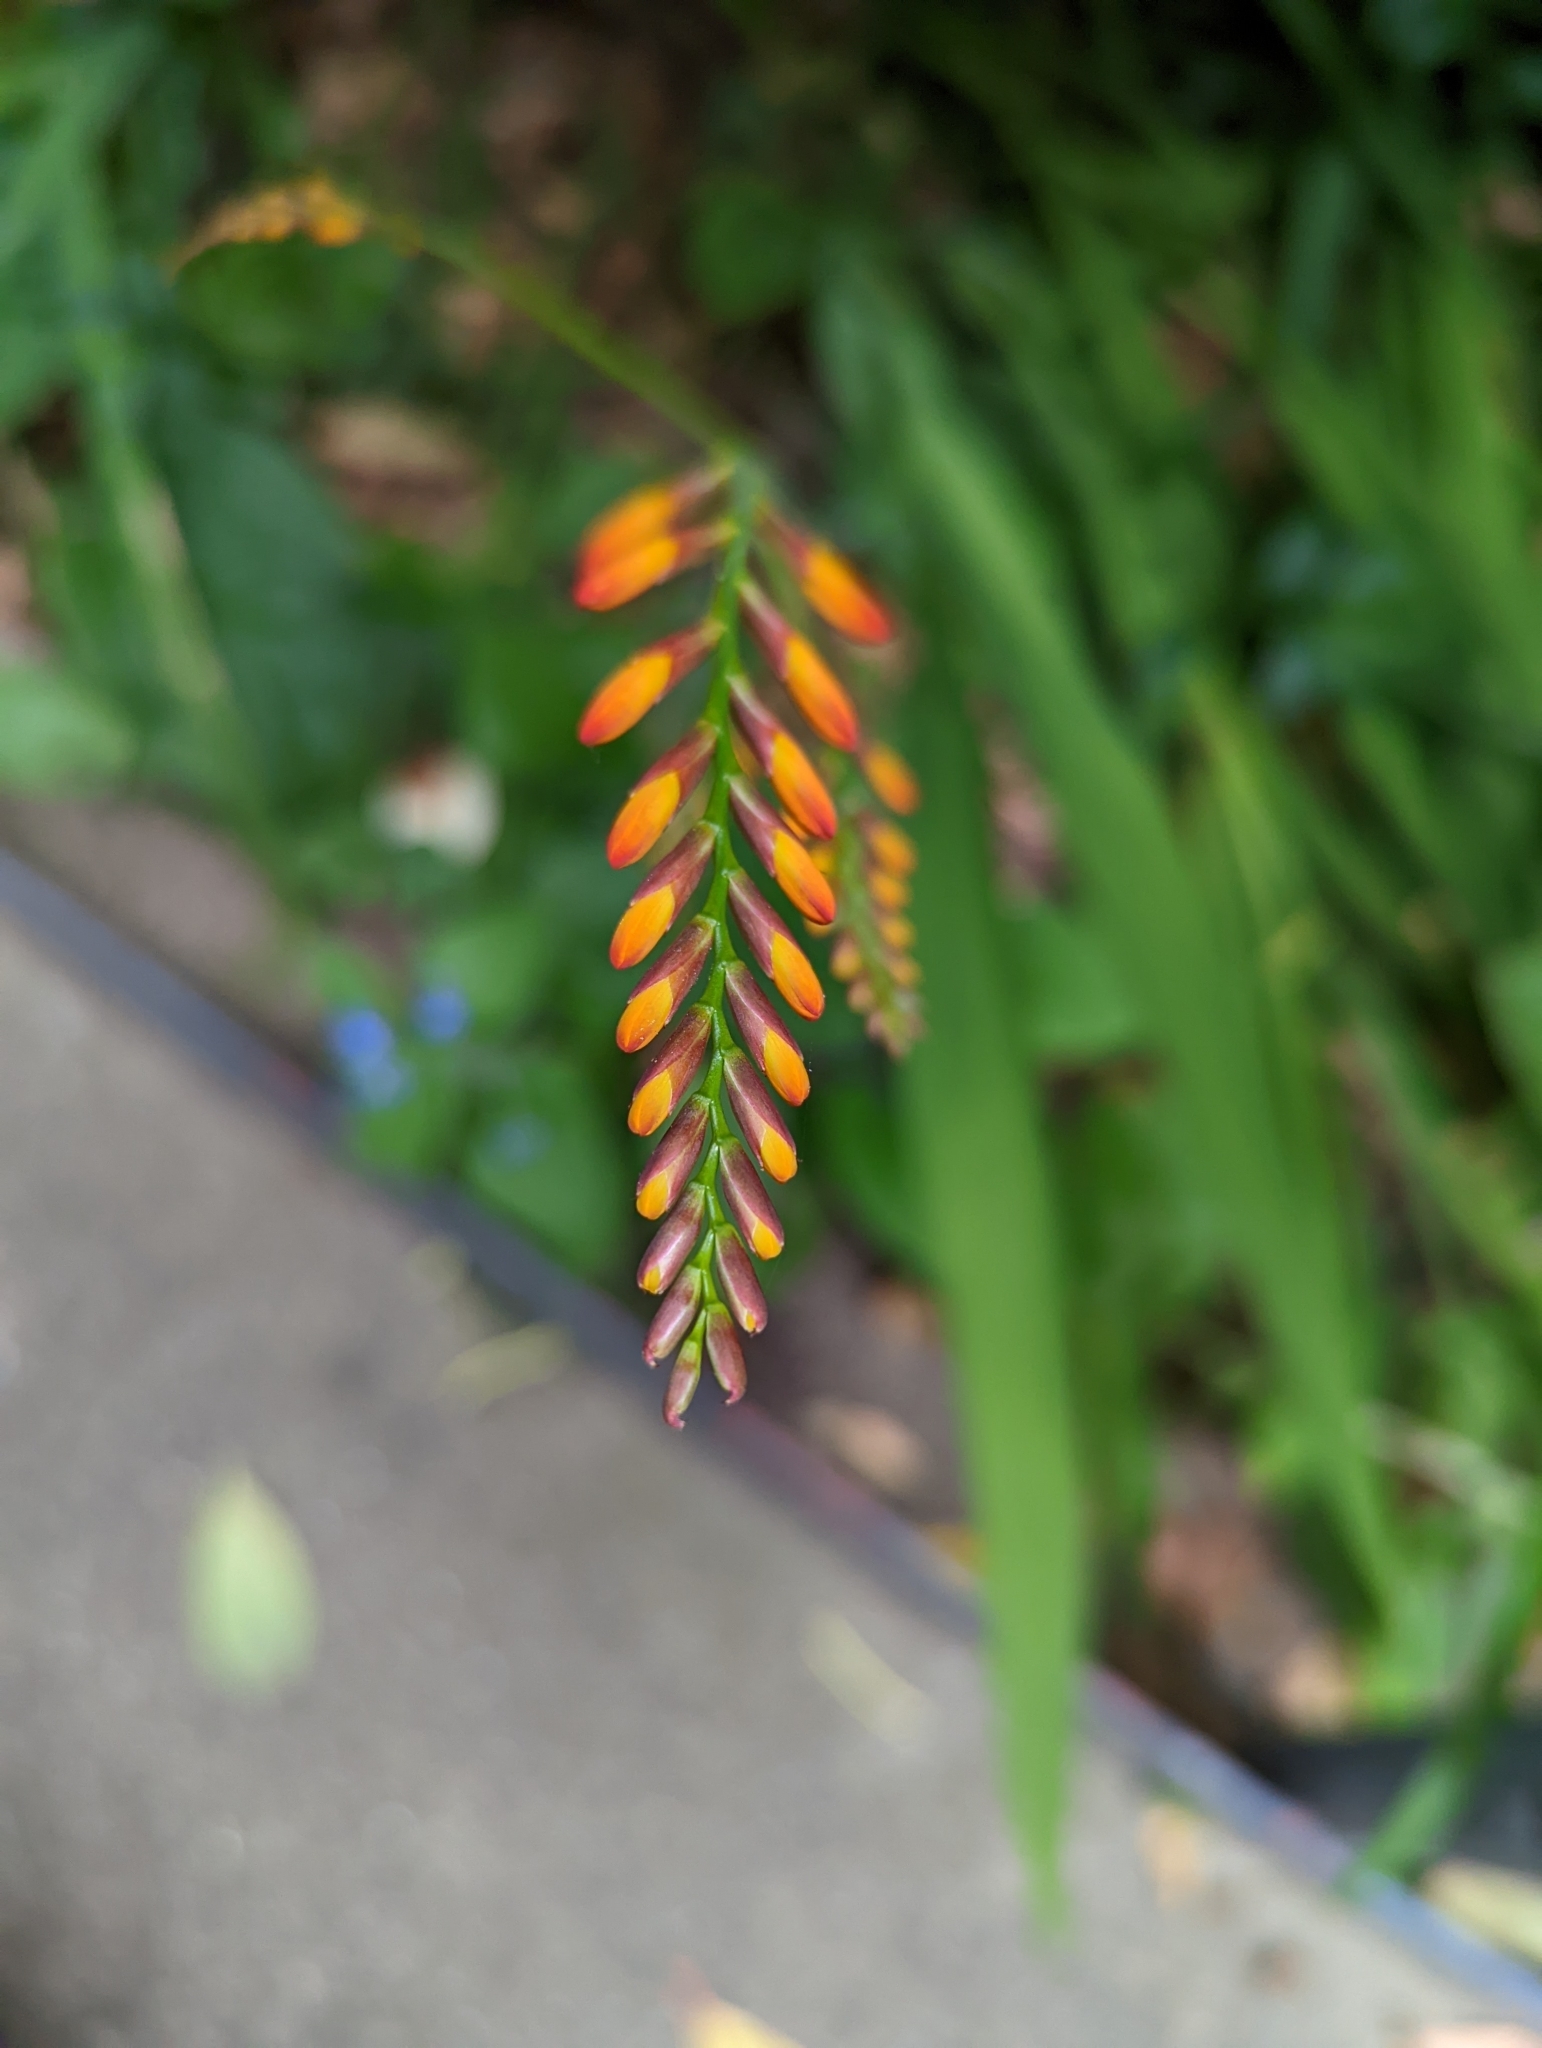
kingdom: Plantae
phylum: Tracheophyta
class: Liliopsida
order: Asparagales
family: Iridaceae
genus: Crocosmia
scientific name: Crocosmia crocosmiiflora
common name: Montbretia
